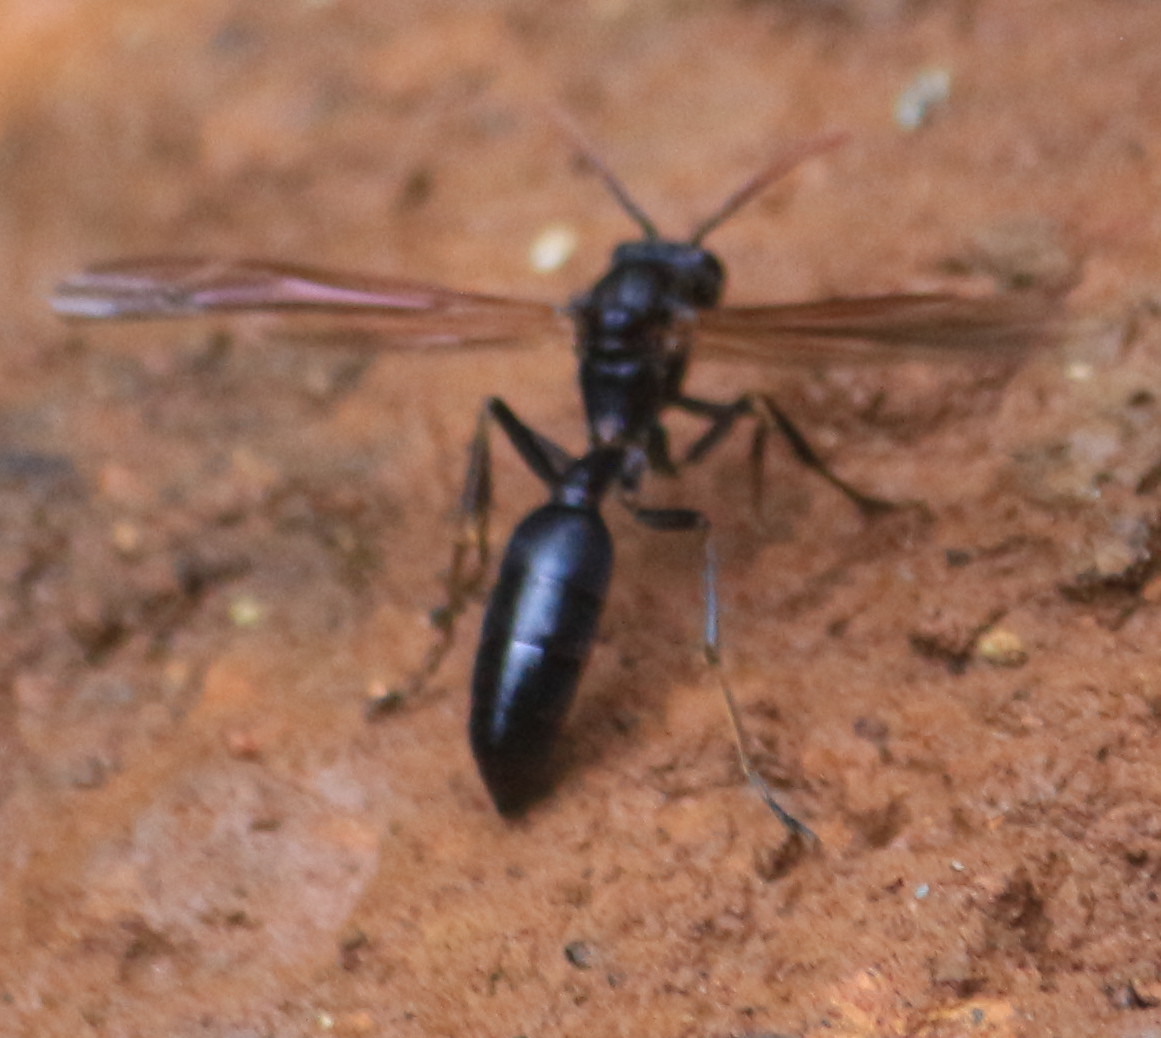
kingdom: Animalia
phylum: Arthropoda
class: Insecta
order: Hymenoptera
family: Vespidae
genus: Agelaia
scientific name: Agelaia panamensis
